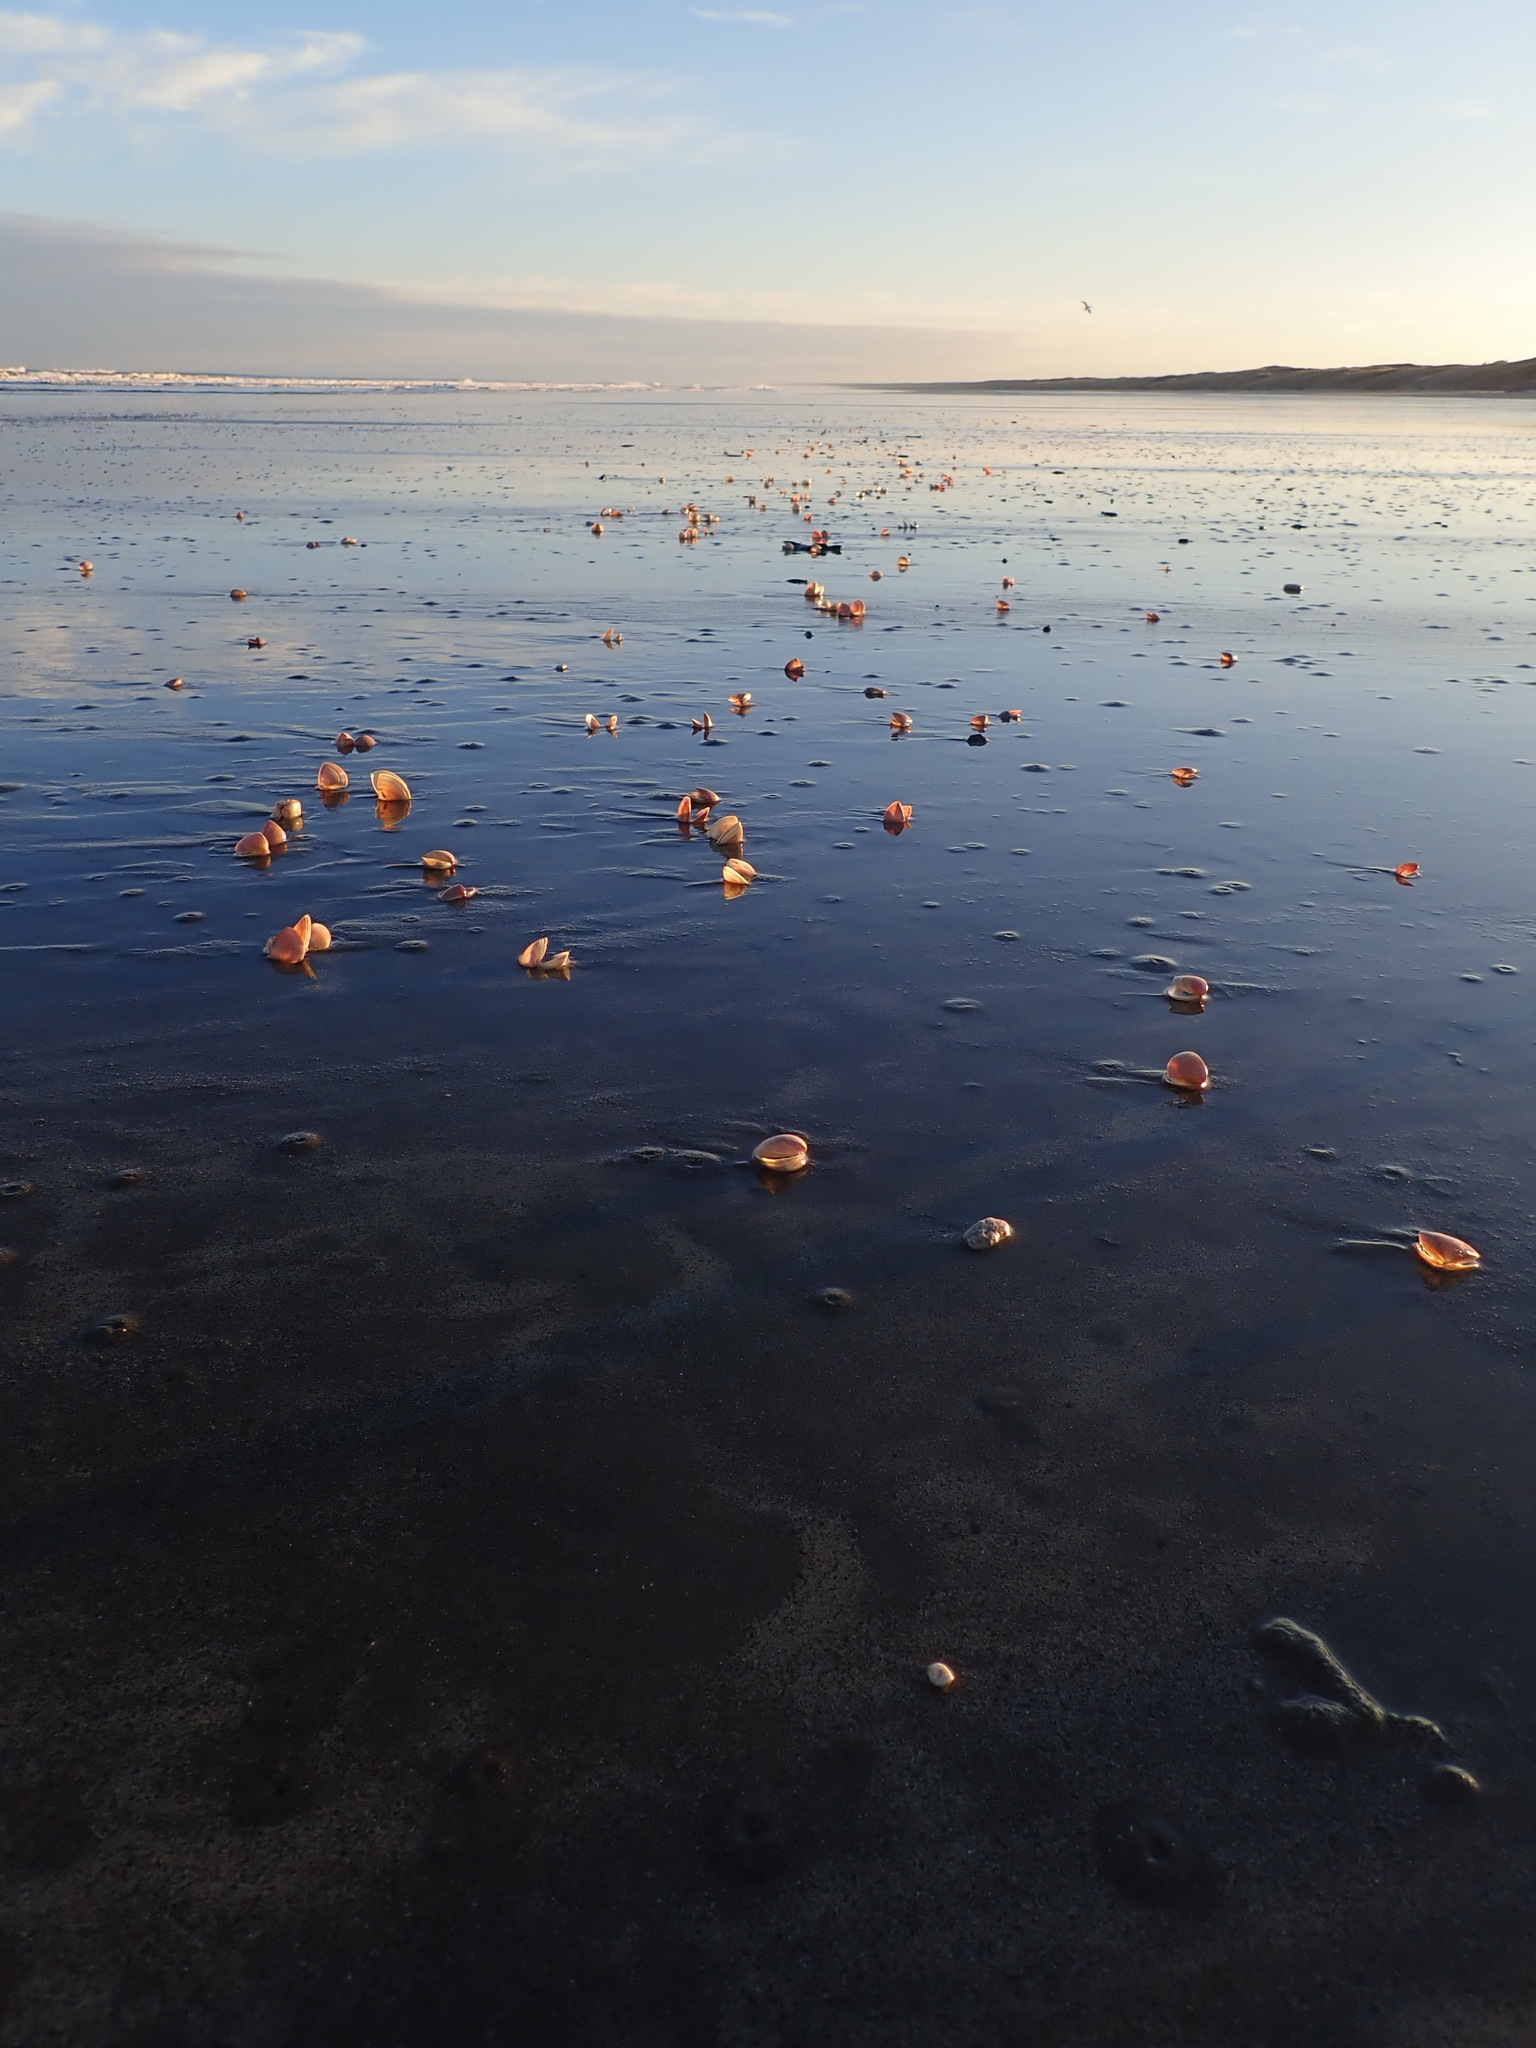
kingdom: Animalia
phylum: Mollusca
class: Bivalvia
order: Venerida
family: Mactridae
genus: Crassula
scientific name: Crassula aequilatera
